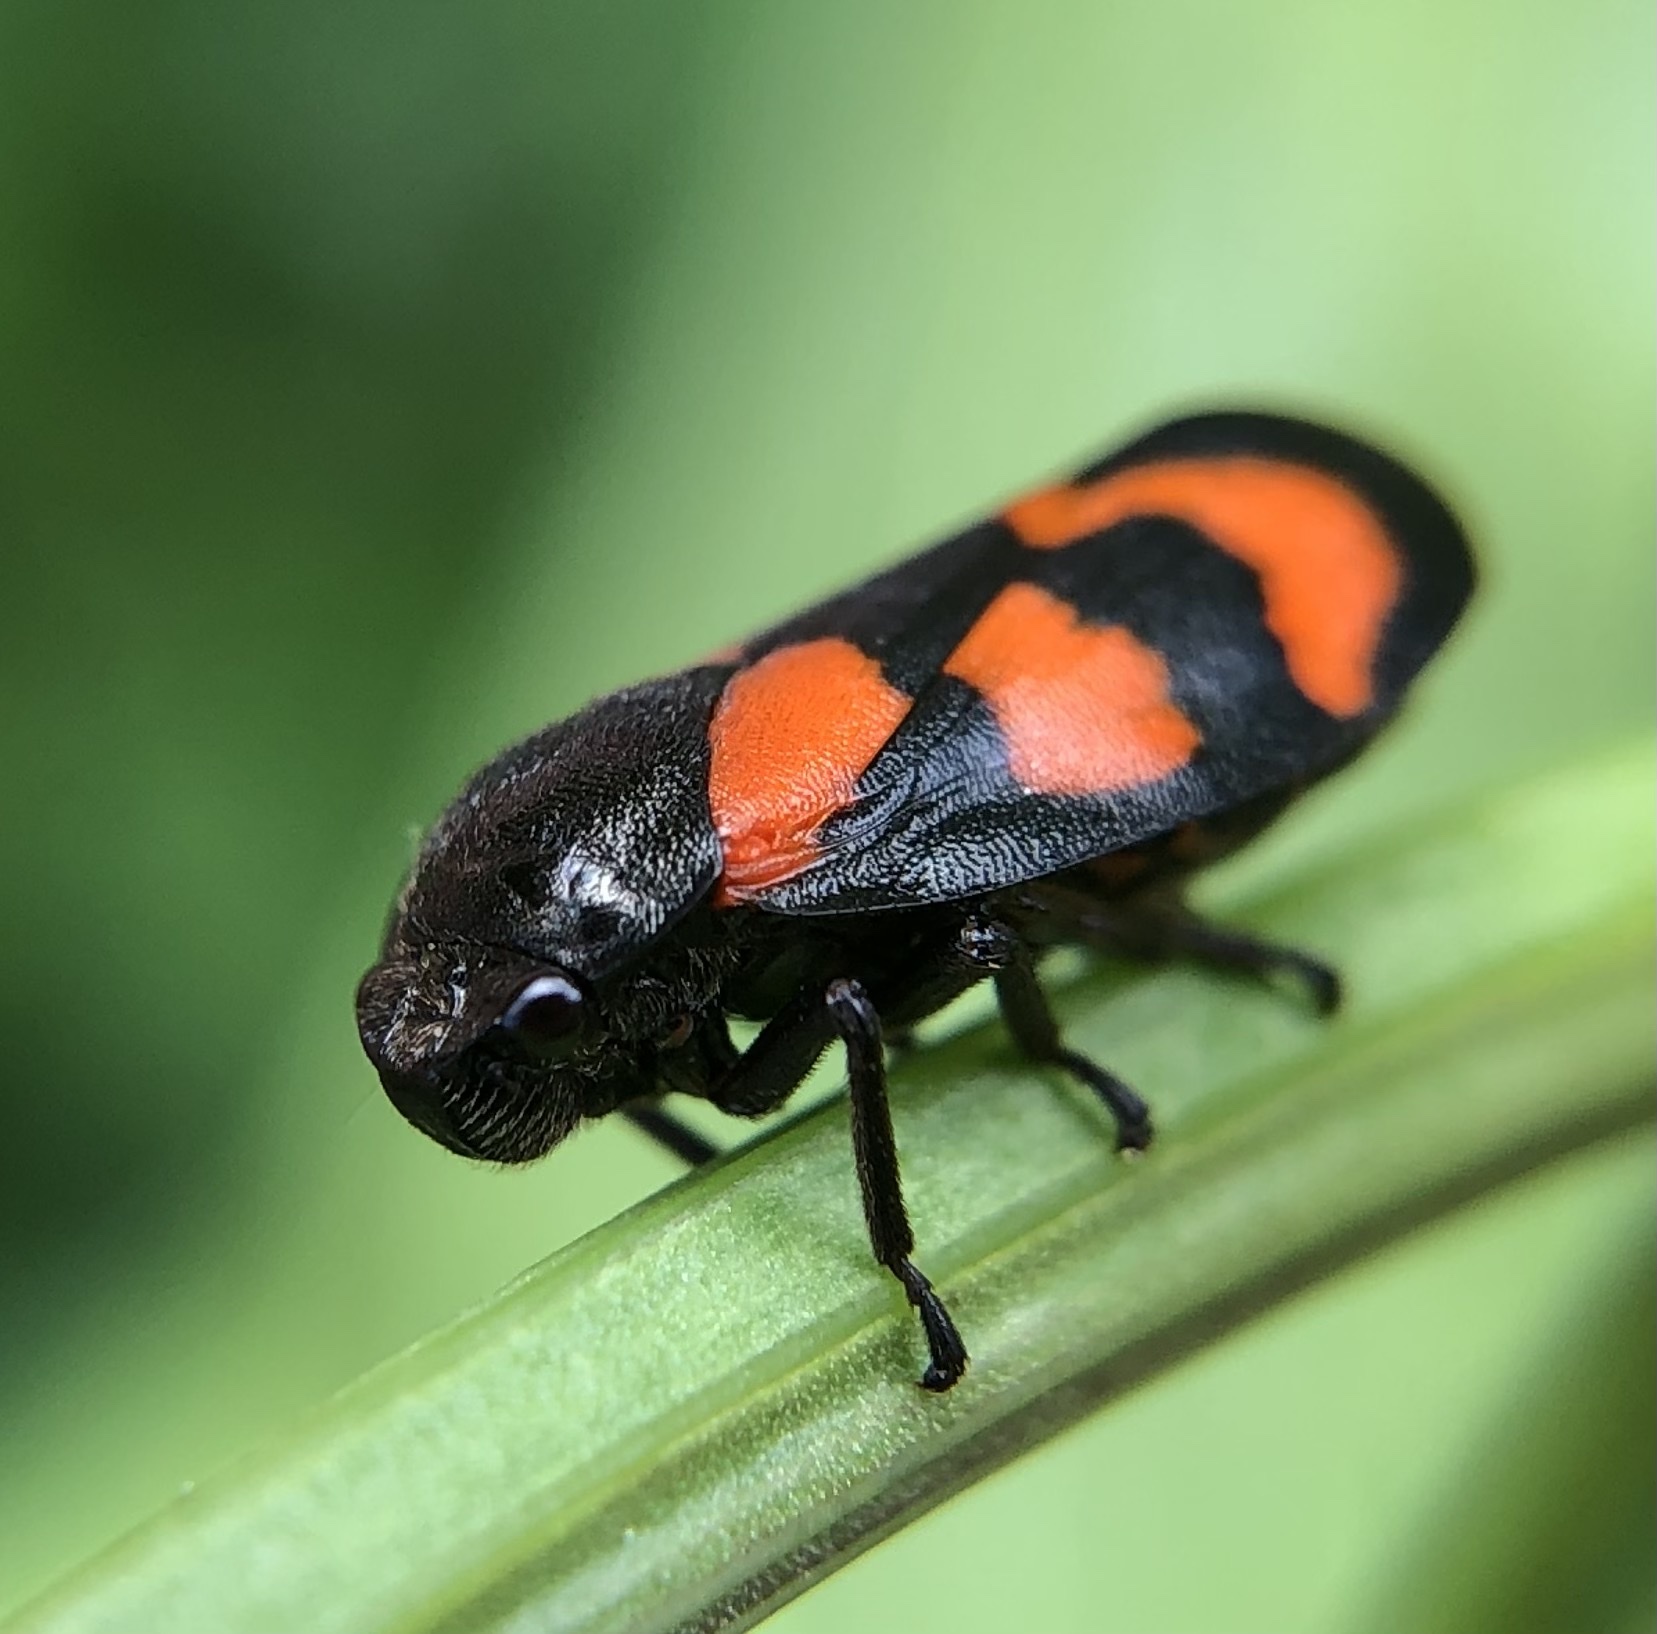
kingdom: Animalia
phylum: Arthropoda
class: Insecta
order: Hemiptera
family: Cercopidae
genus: Cercopis
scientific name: Cercopis vulnerata
